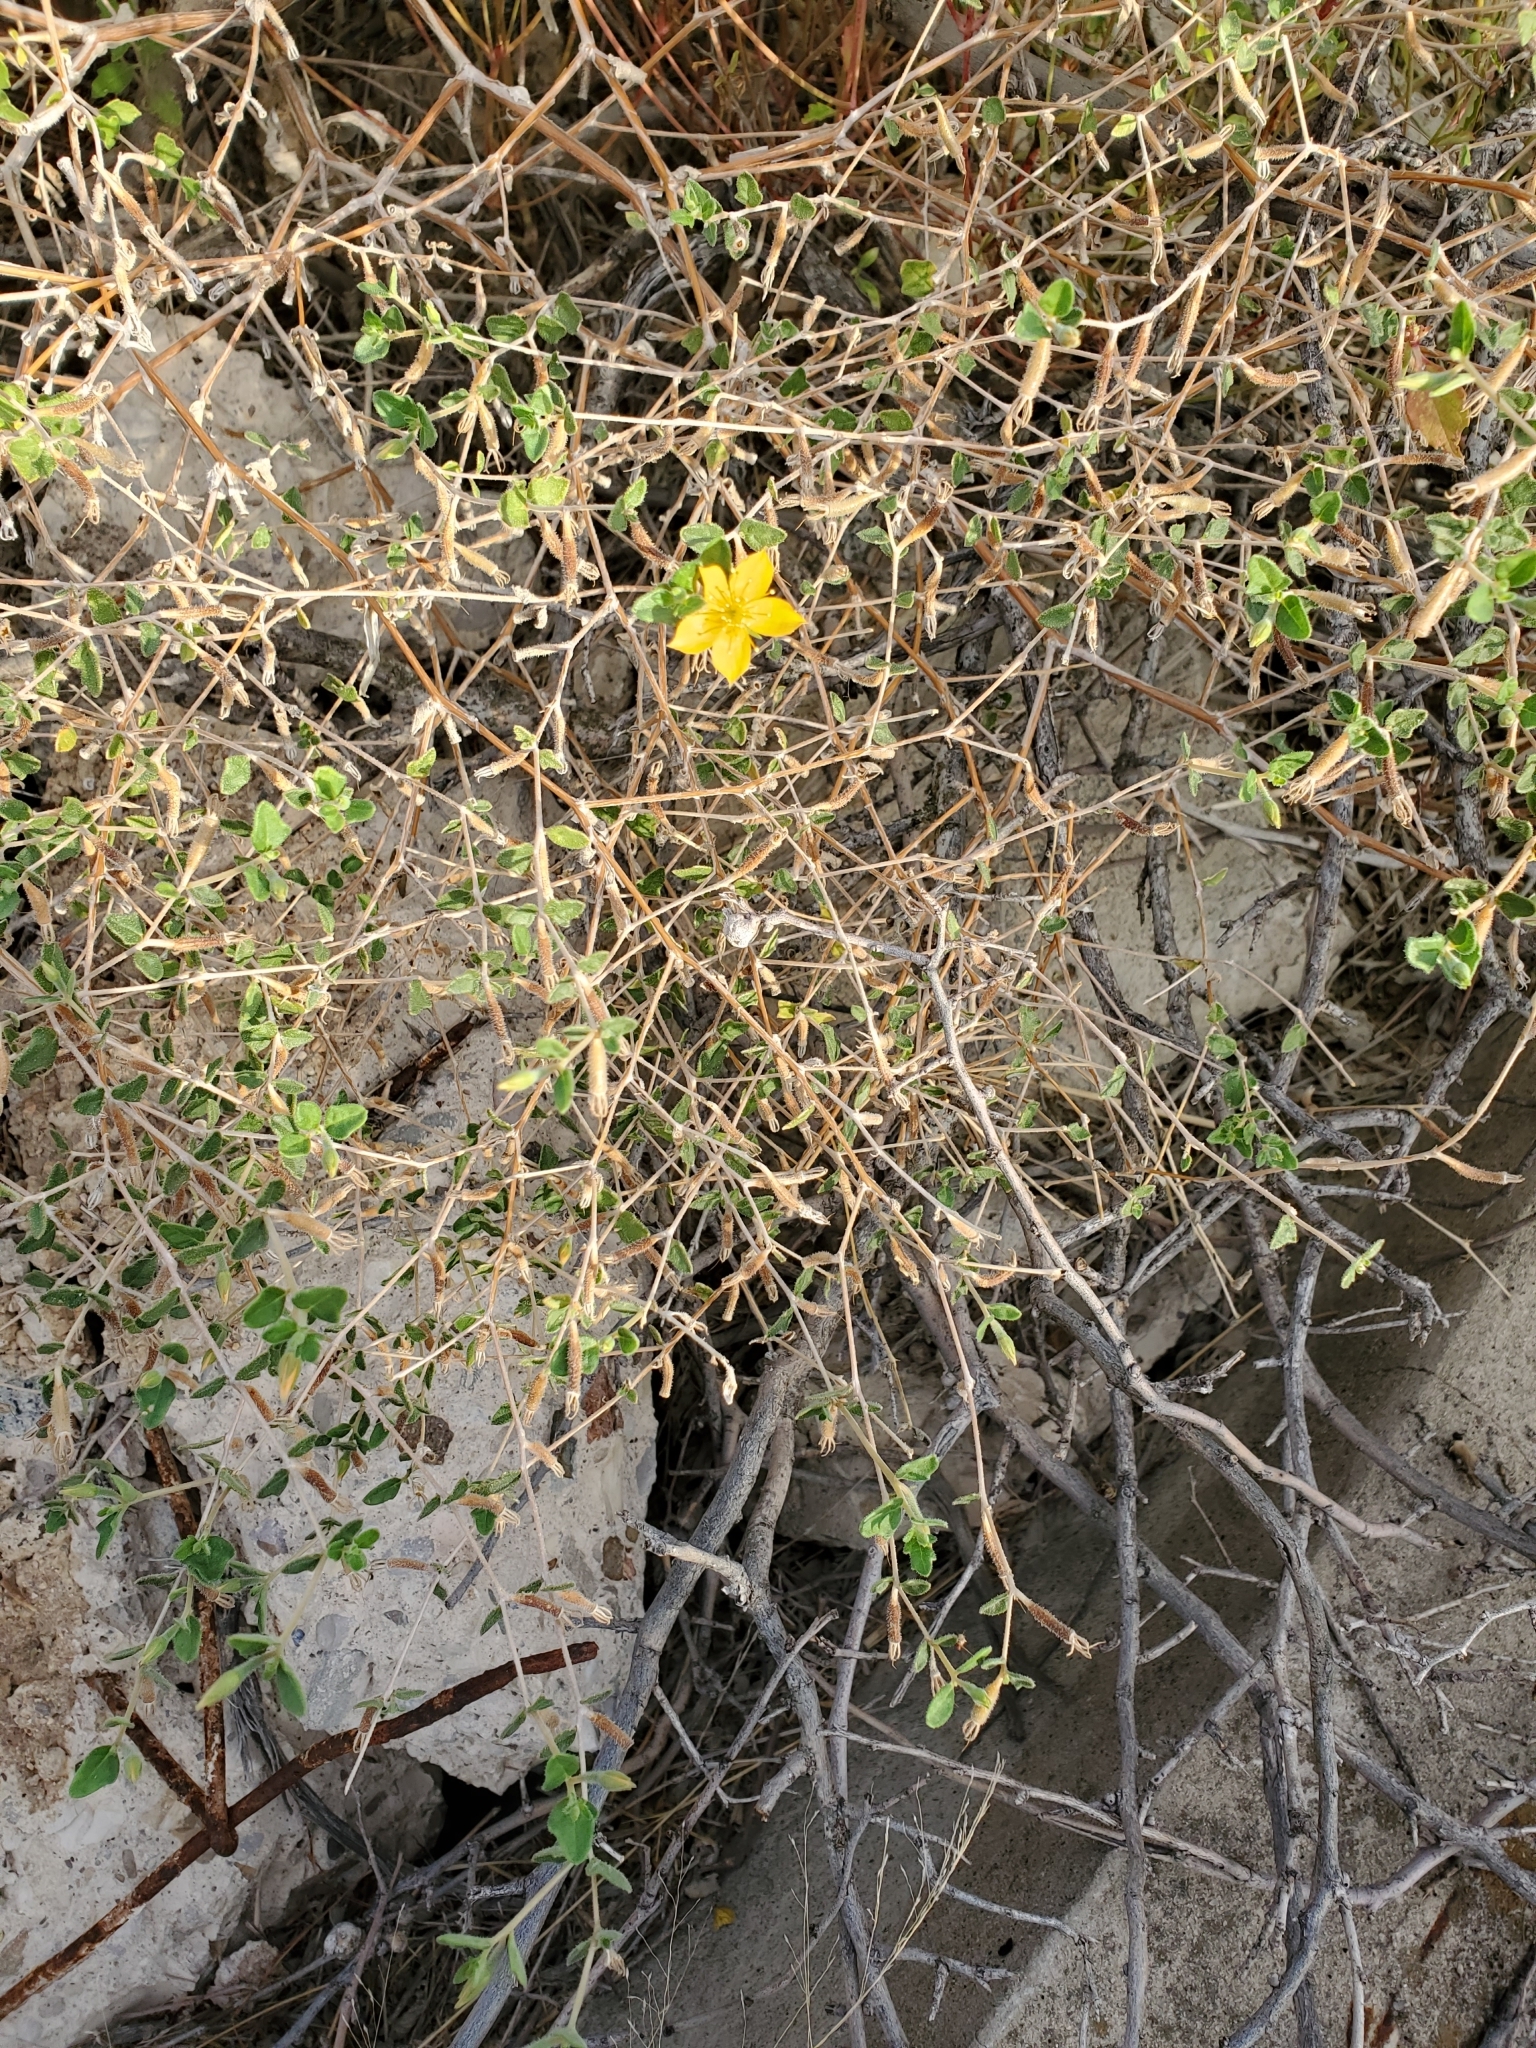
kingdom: Plantae
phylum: Tracheophyta
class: Magnoliopsida
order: Cornales
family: Loasaceae
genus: Mentzelia
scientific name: Mentzelia oligosperma
